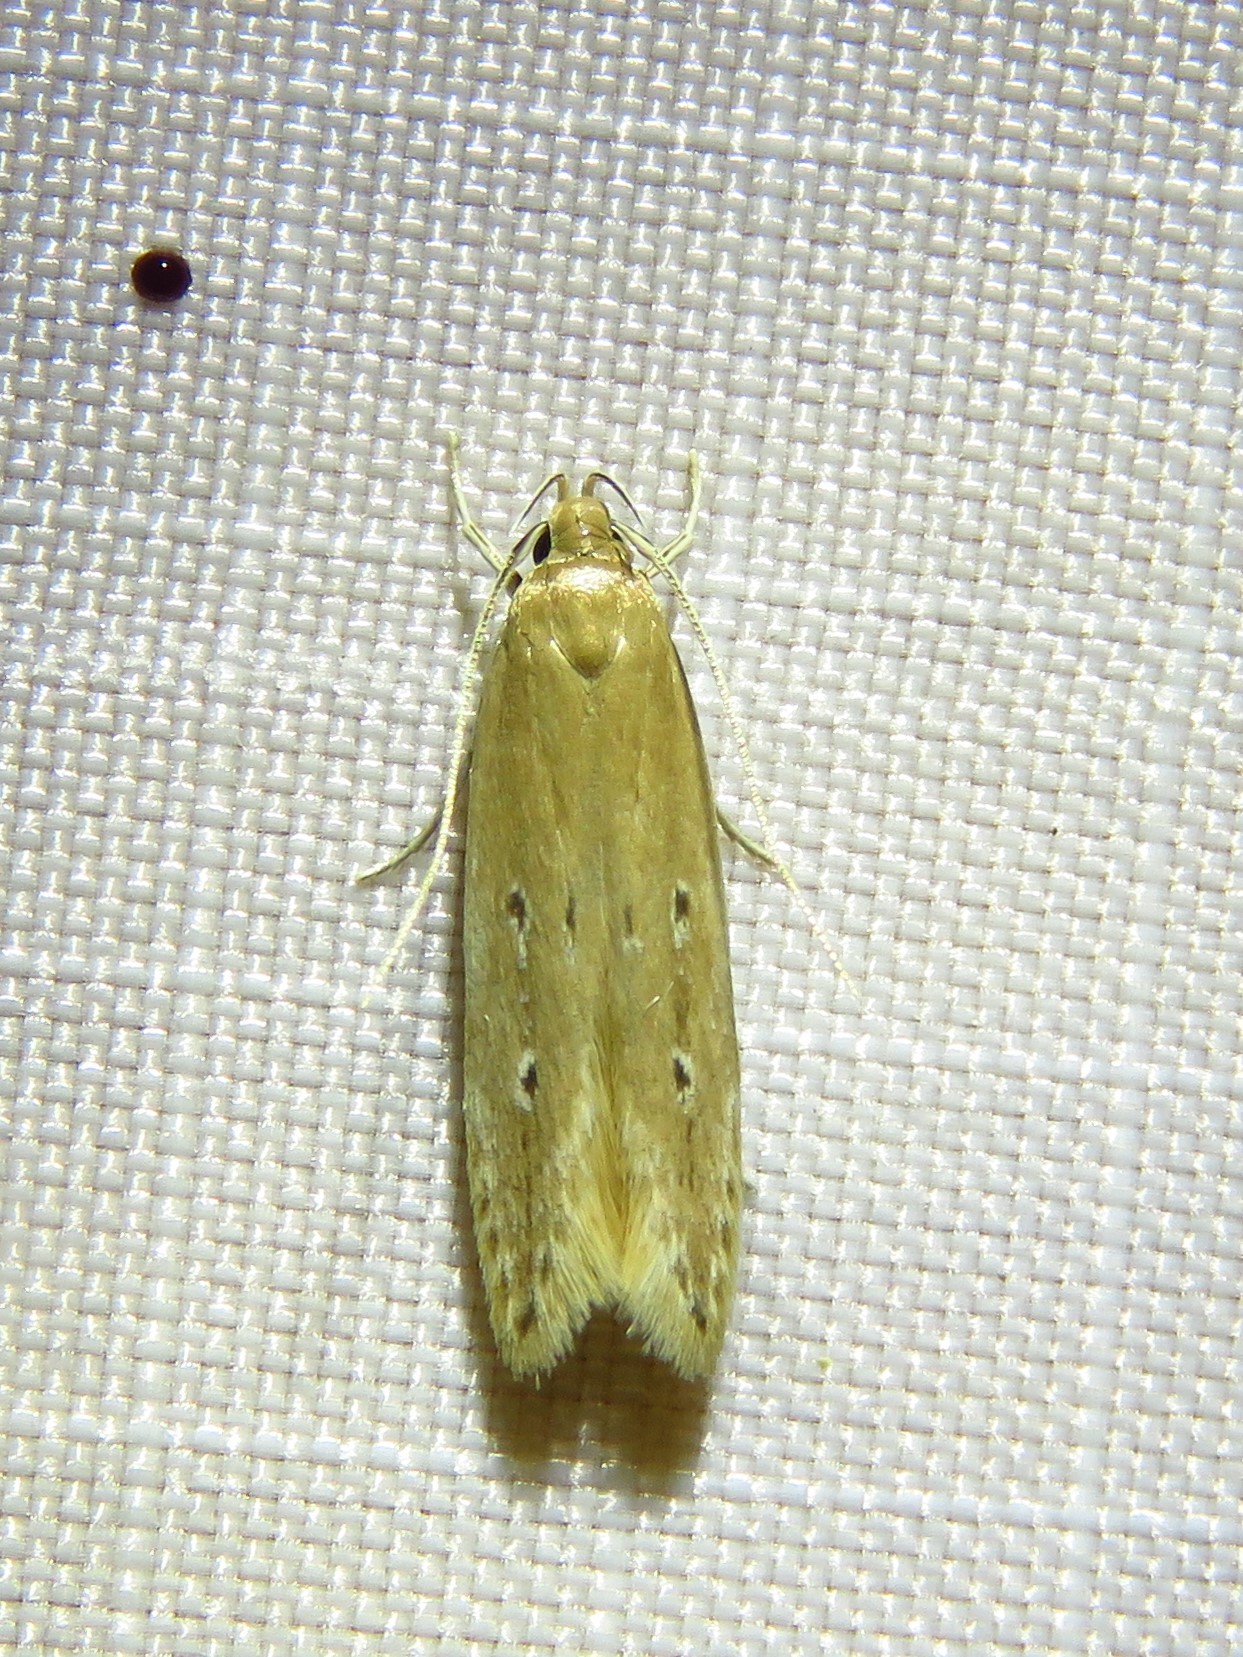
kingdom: Animalia
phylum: Arthropoda
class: Insecta
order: Lepidoptera
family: Cosmopterigidae
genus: Limnaecia
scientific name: Limnaecia phragmitella
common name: Bulrush cosmet
